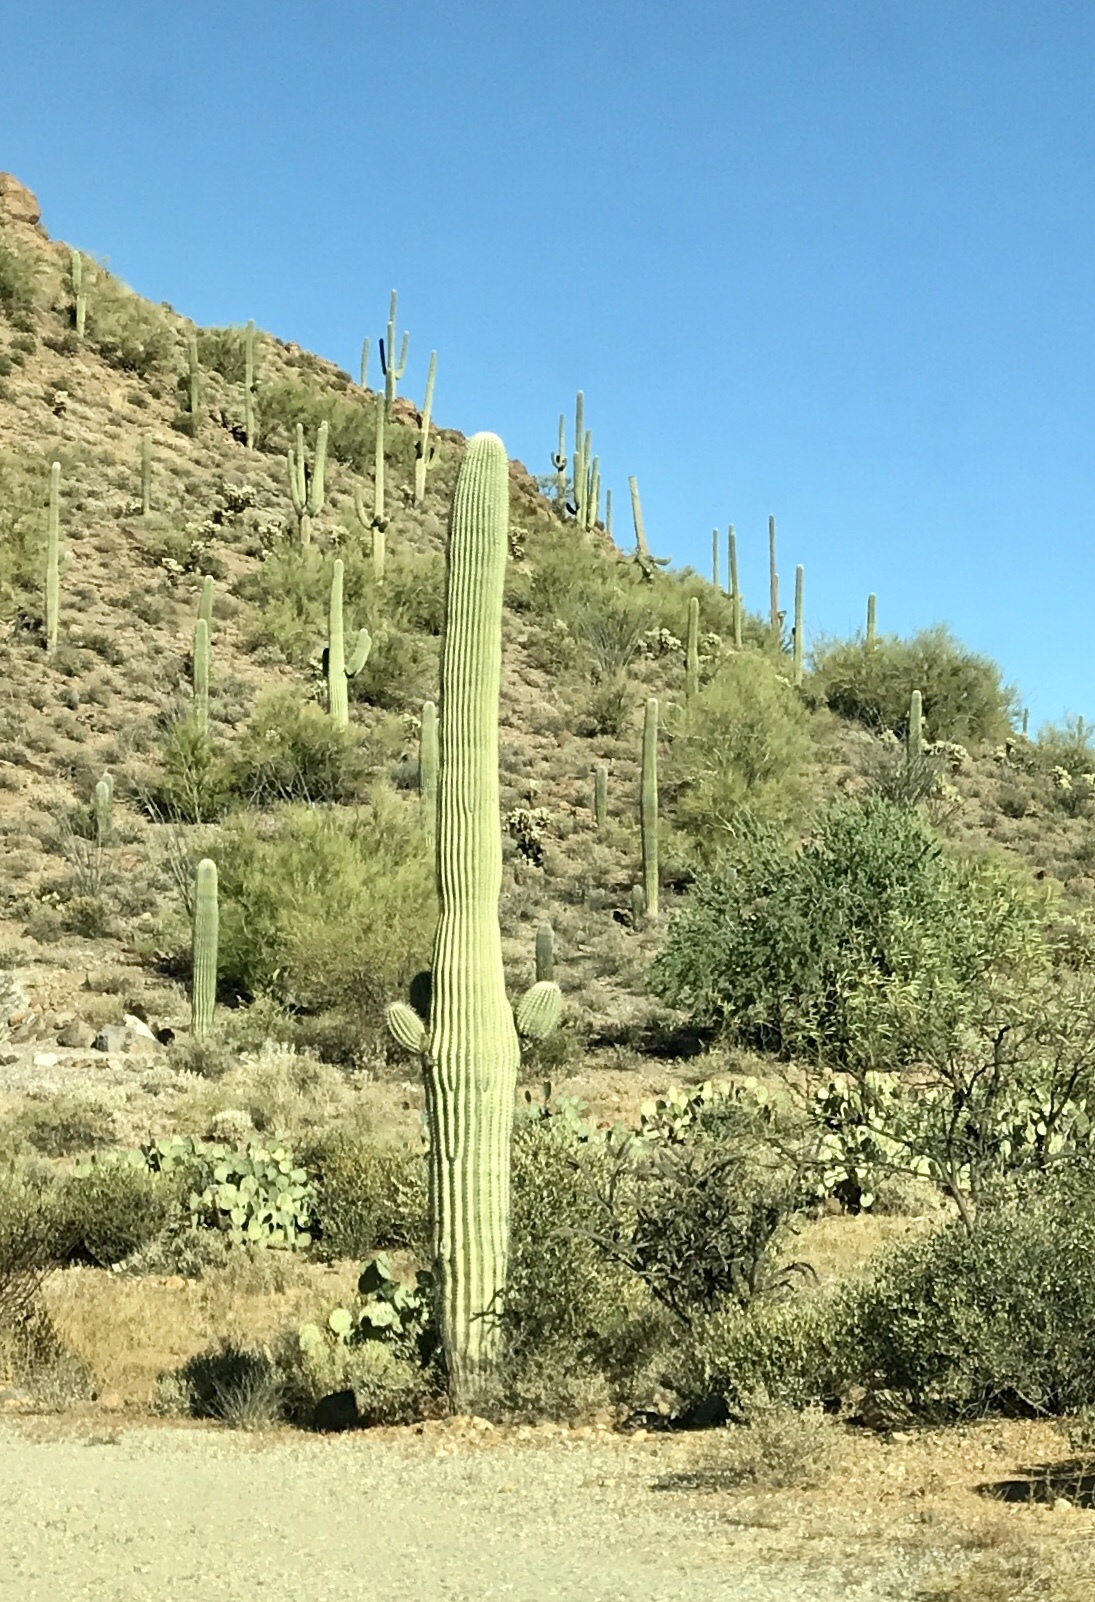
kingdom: Plantae
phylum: Tracheophyta
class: Magnoliopsida
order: Caryophyllales
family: Cactaceae
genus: Carnegiea
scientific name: Carnegiea gigantea
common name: Saguaro
